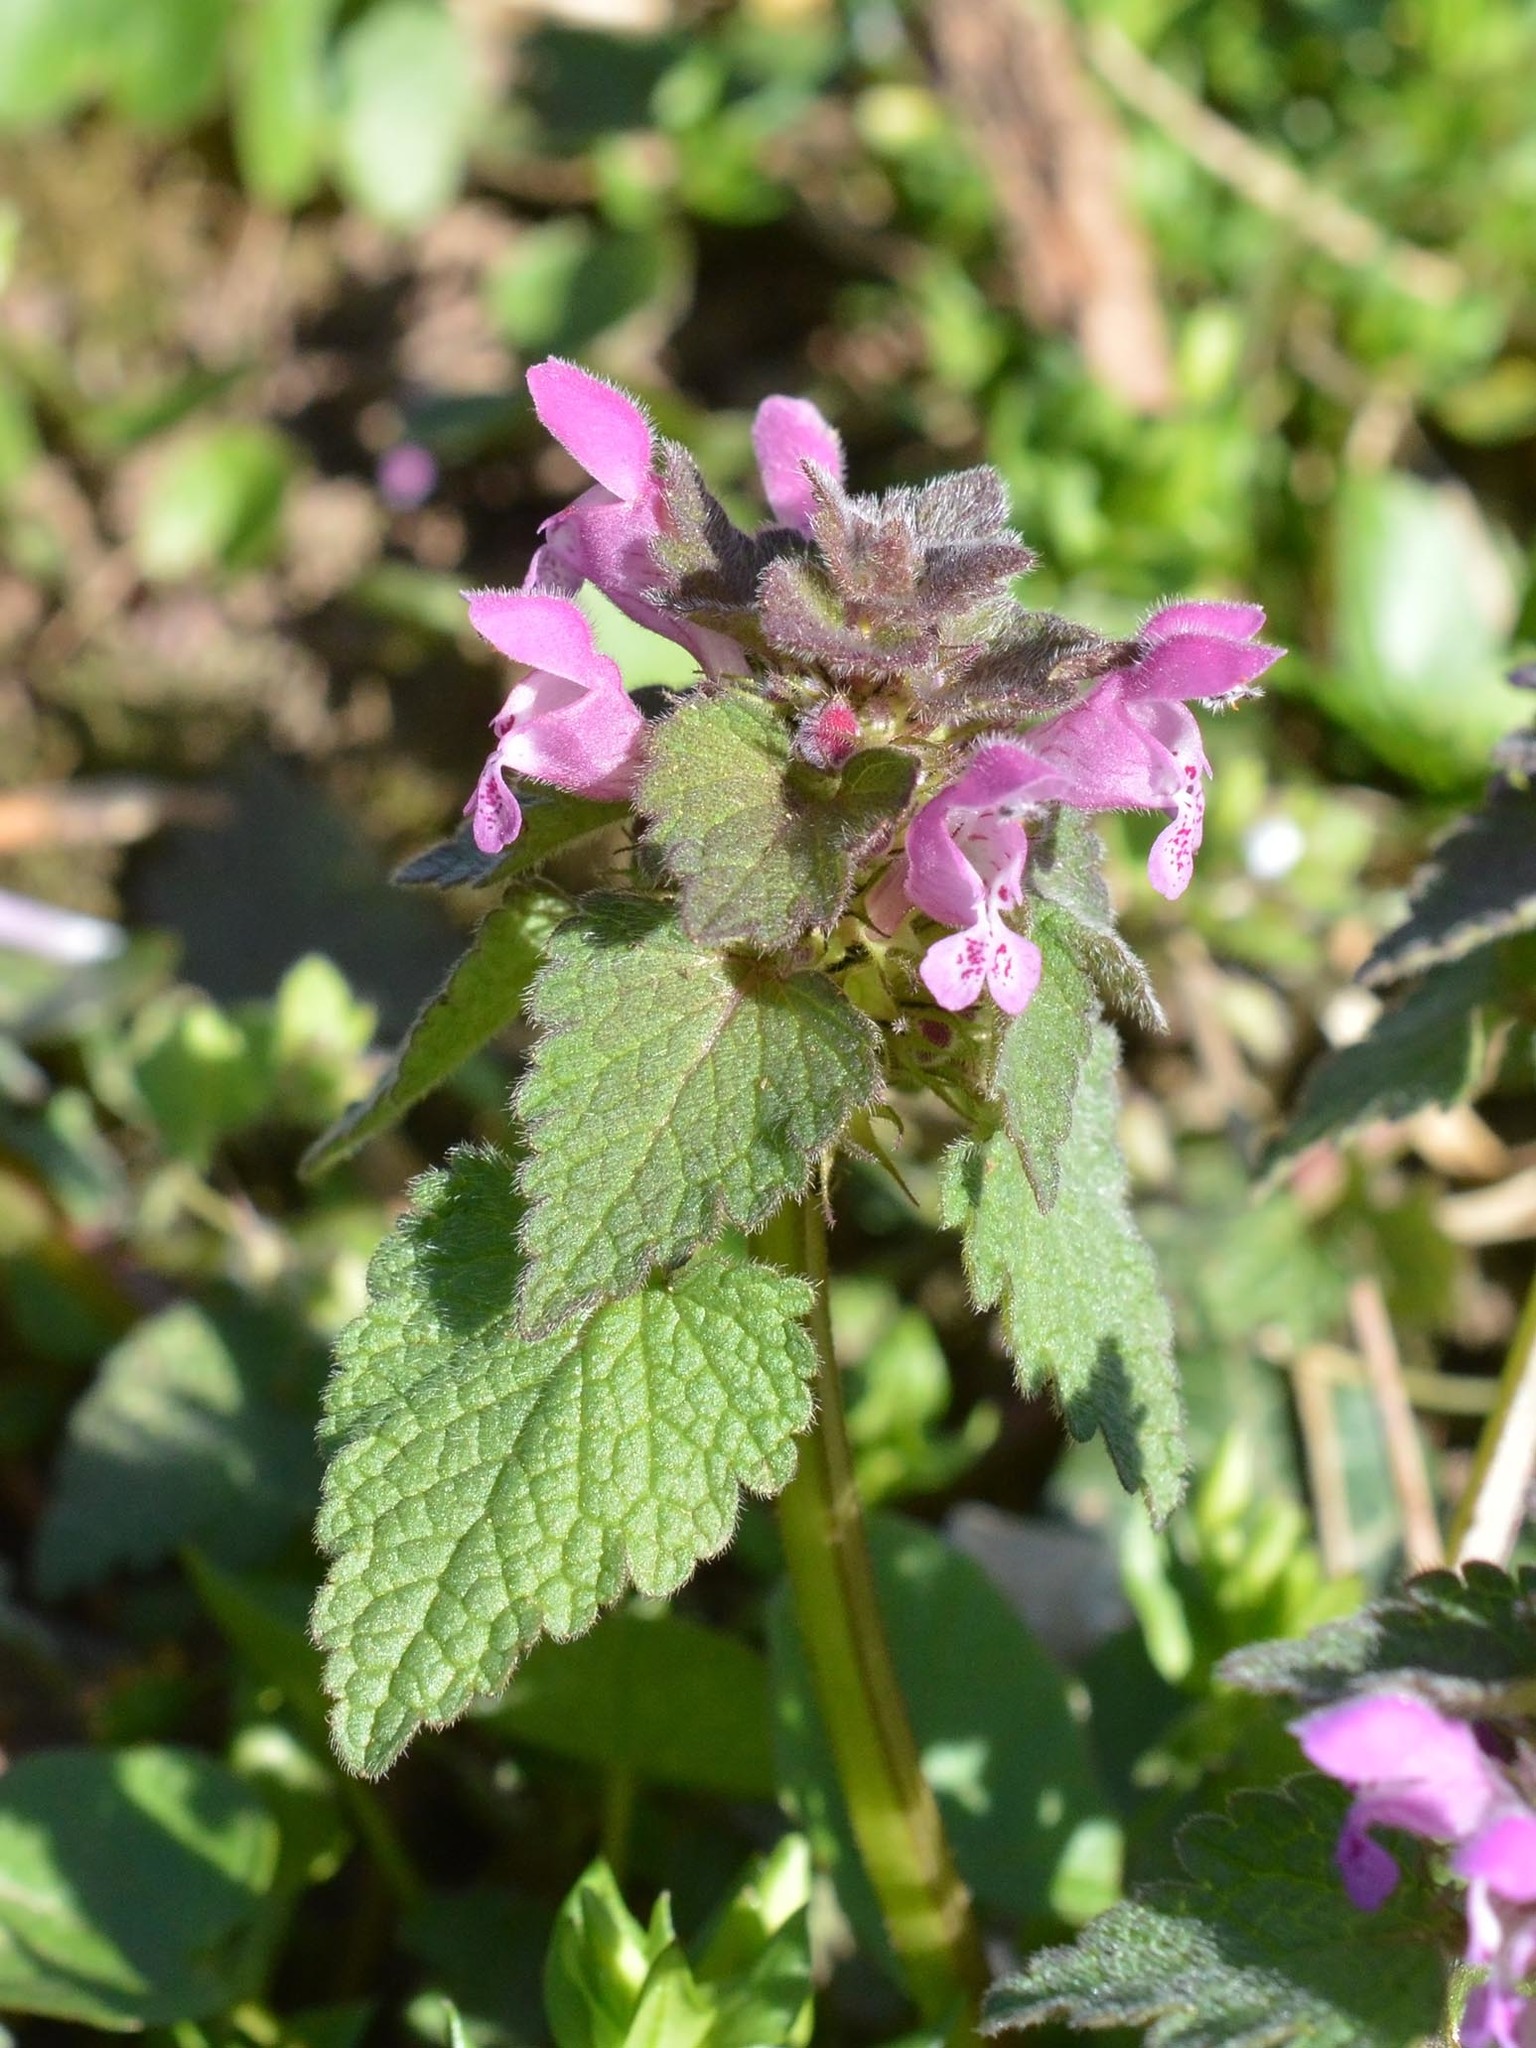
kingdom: Plantae
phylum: Tracheophyta
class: Magnoliopsida
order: Lamiales
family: Lamiaceae
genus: Lamium
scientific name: Lamium purpureum
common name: Red dead-nettle
